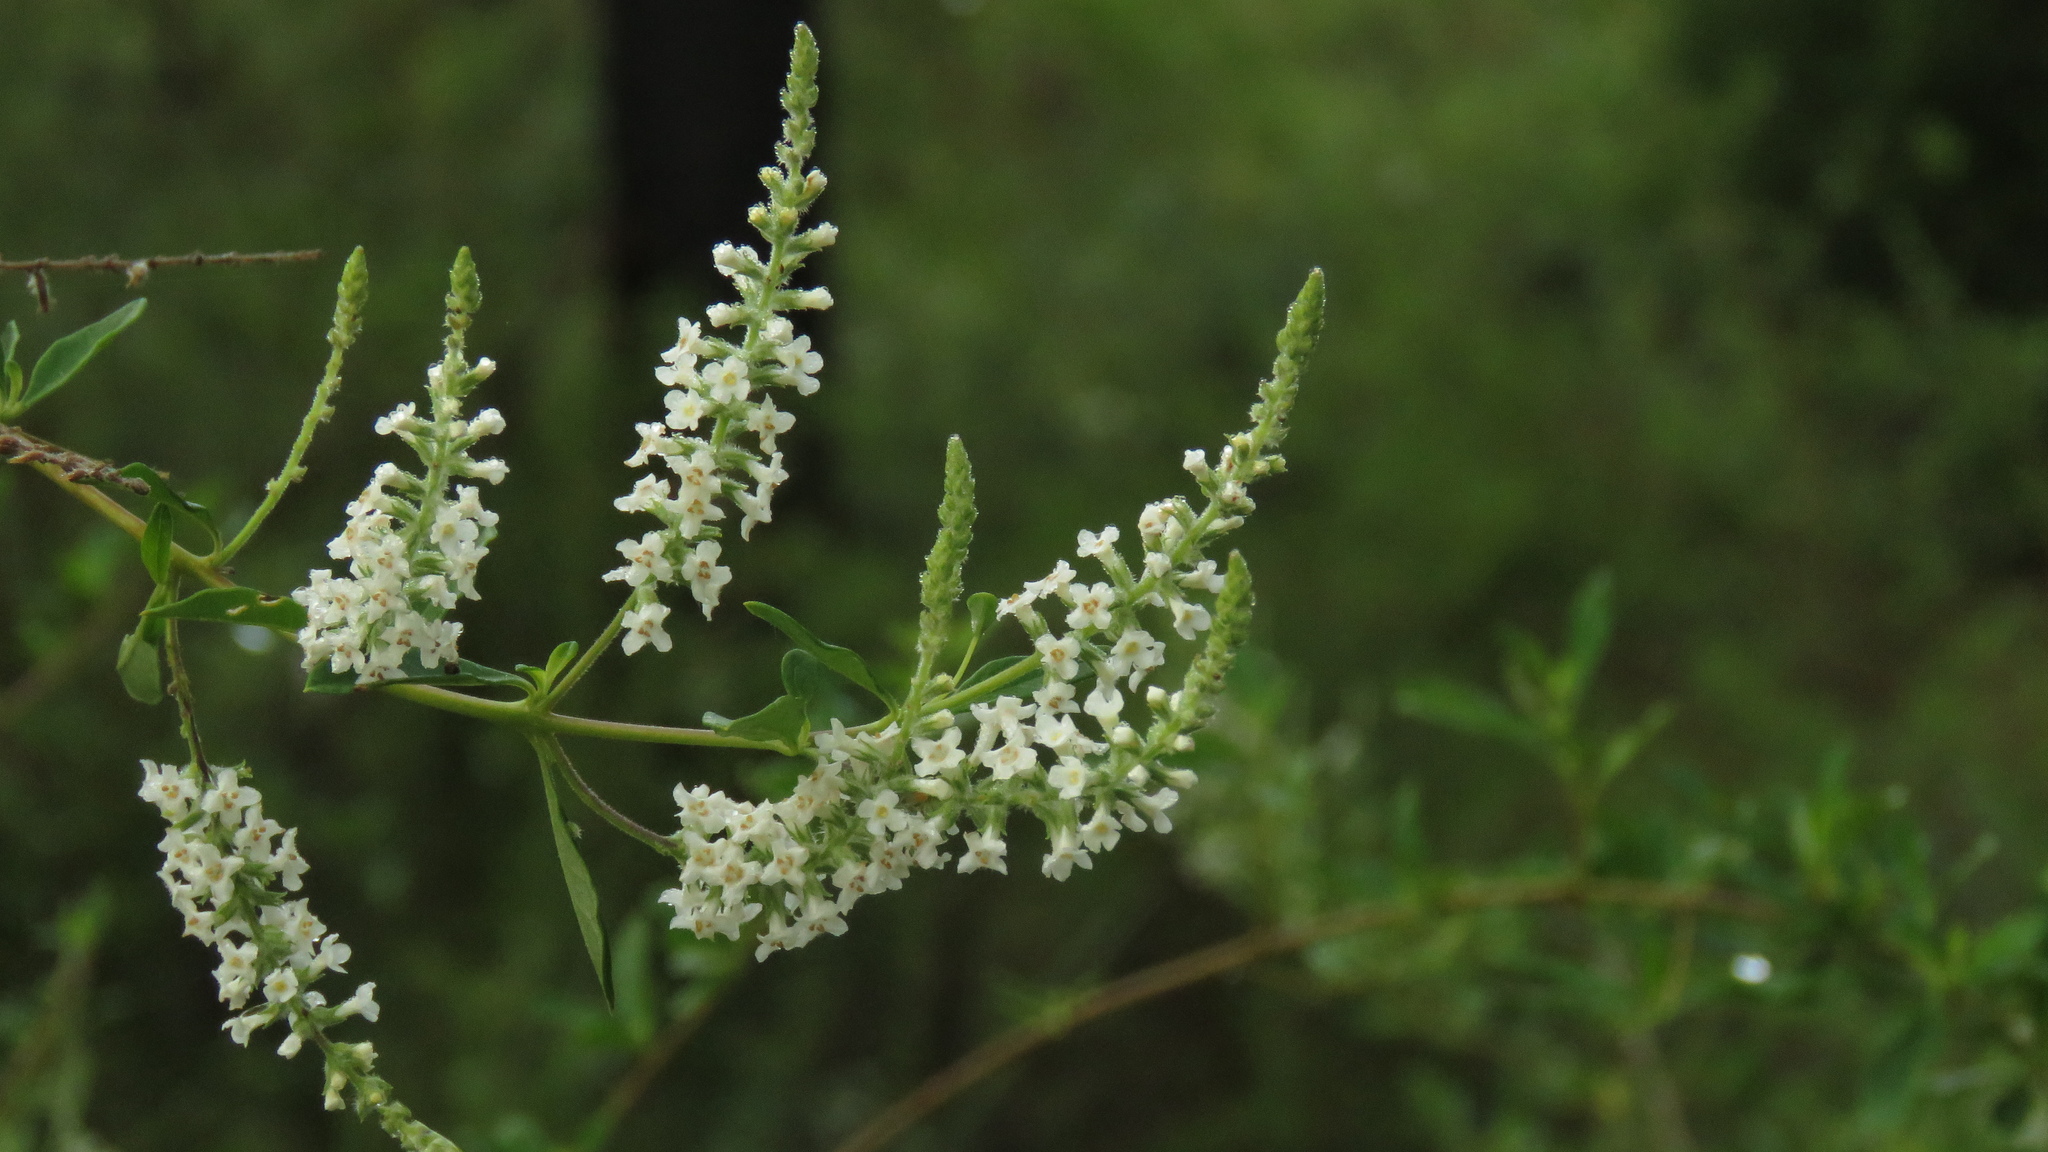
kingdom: Plantae
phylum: Tracheophyta
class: Magnoliopsida
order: Lamiales
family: Verbenaceae
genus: Aloysia
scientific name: Aloysia gratissima
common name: Common bee-brush
